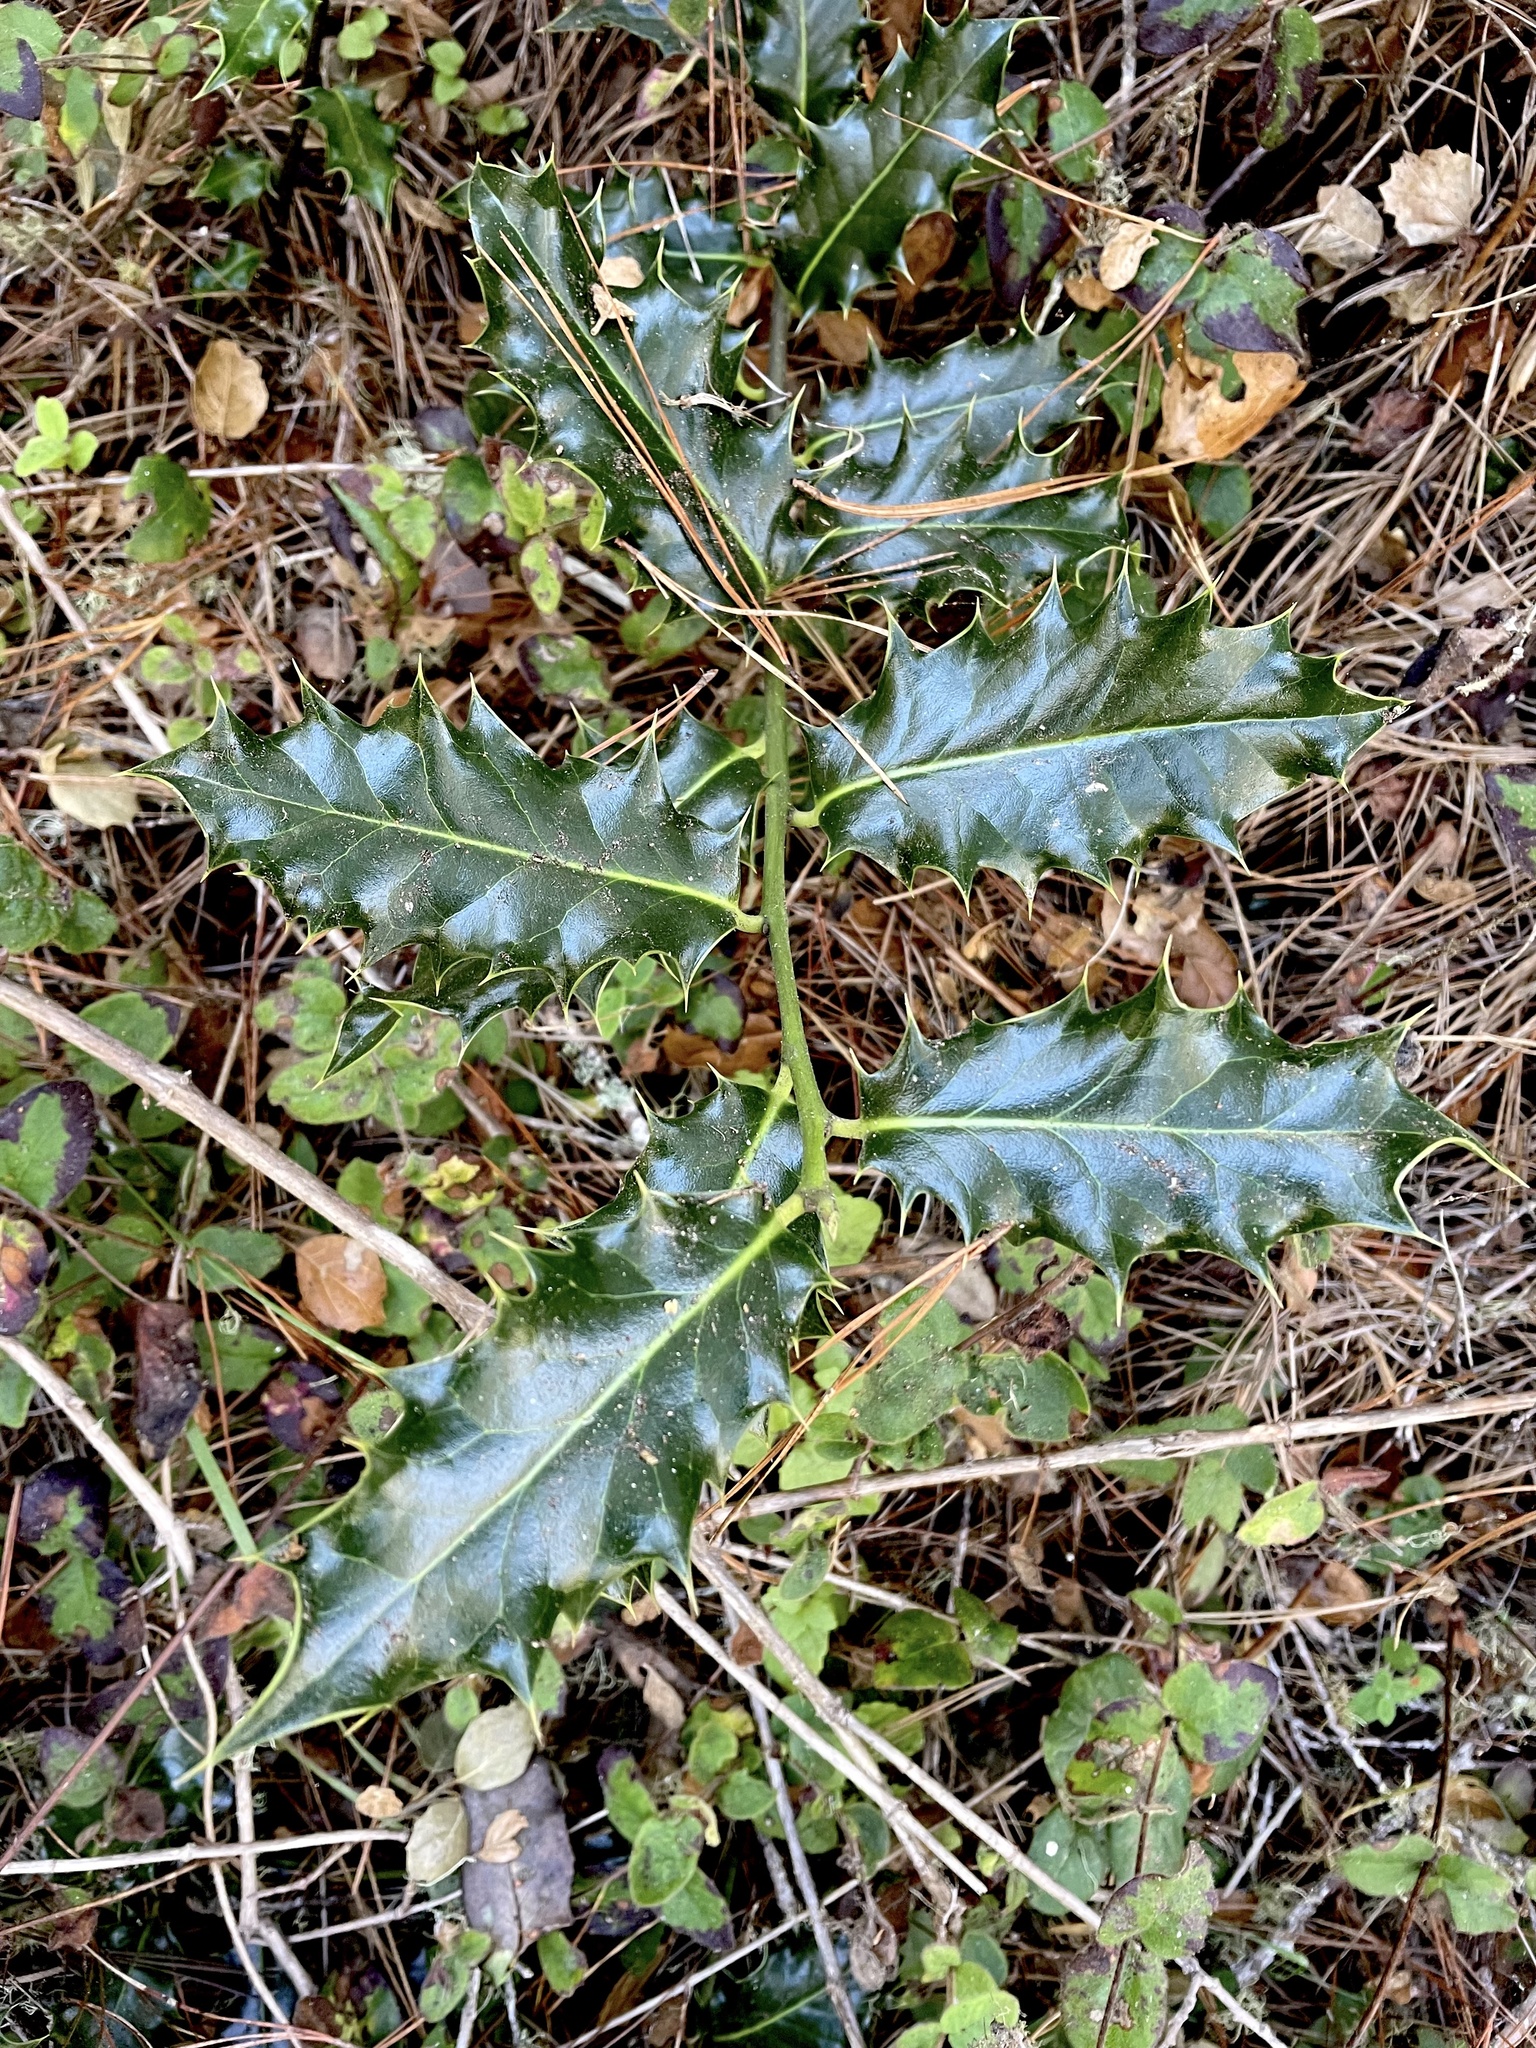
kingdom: Plantae
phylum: Tracheophyta
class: Magnoliopsida
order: Aquifoliales
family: Aquifoliaceae
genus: Ilex
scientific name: Ilex aquifolium
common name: English holly
